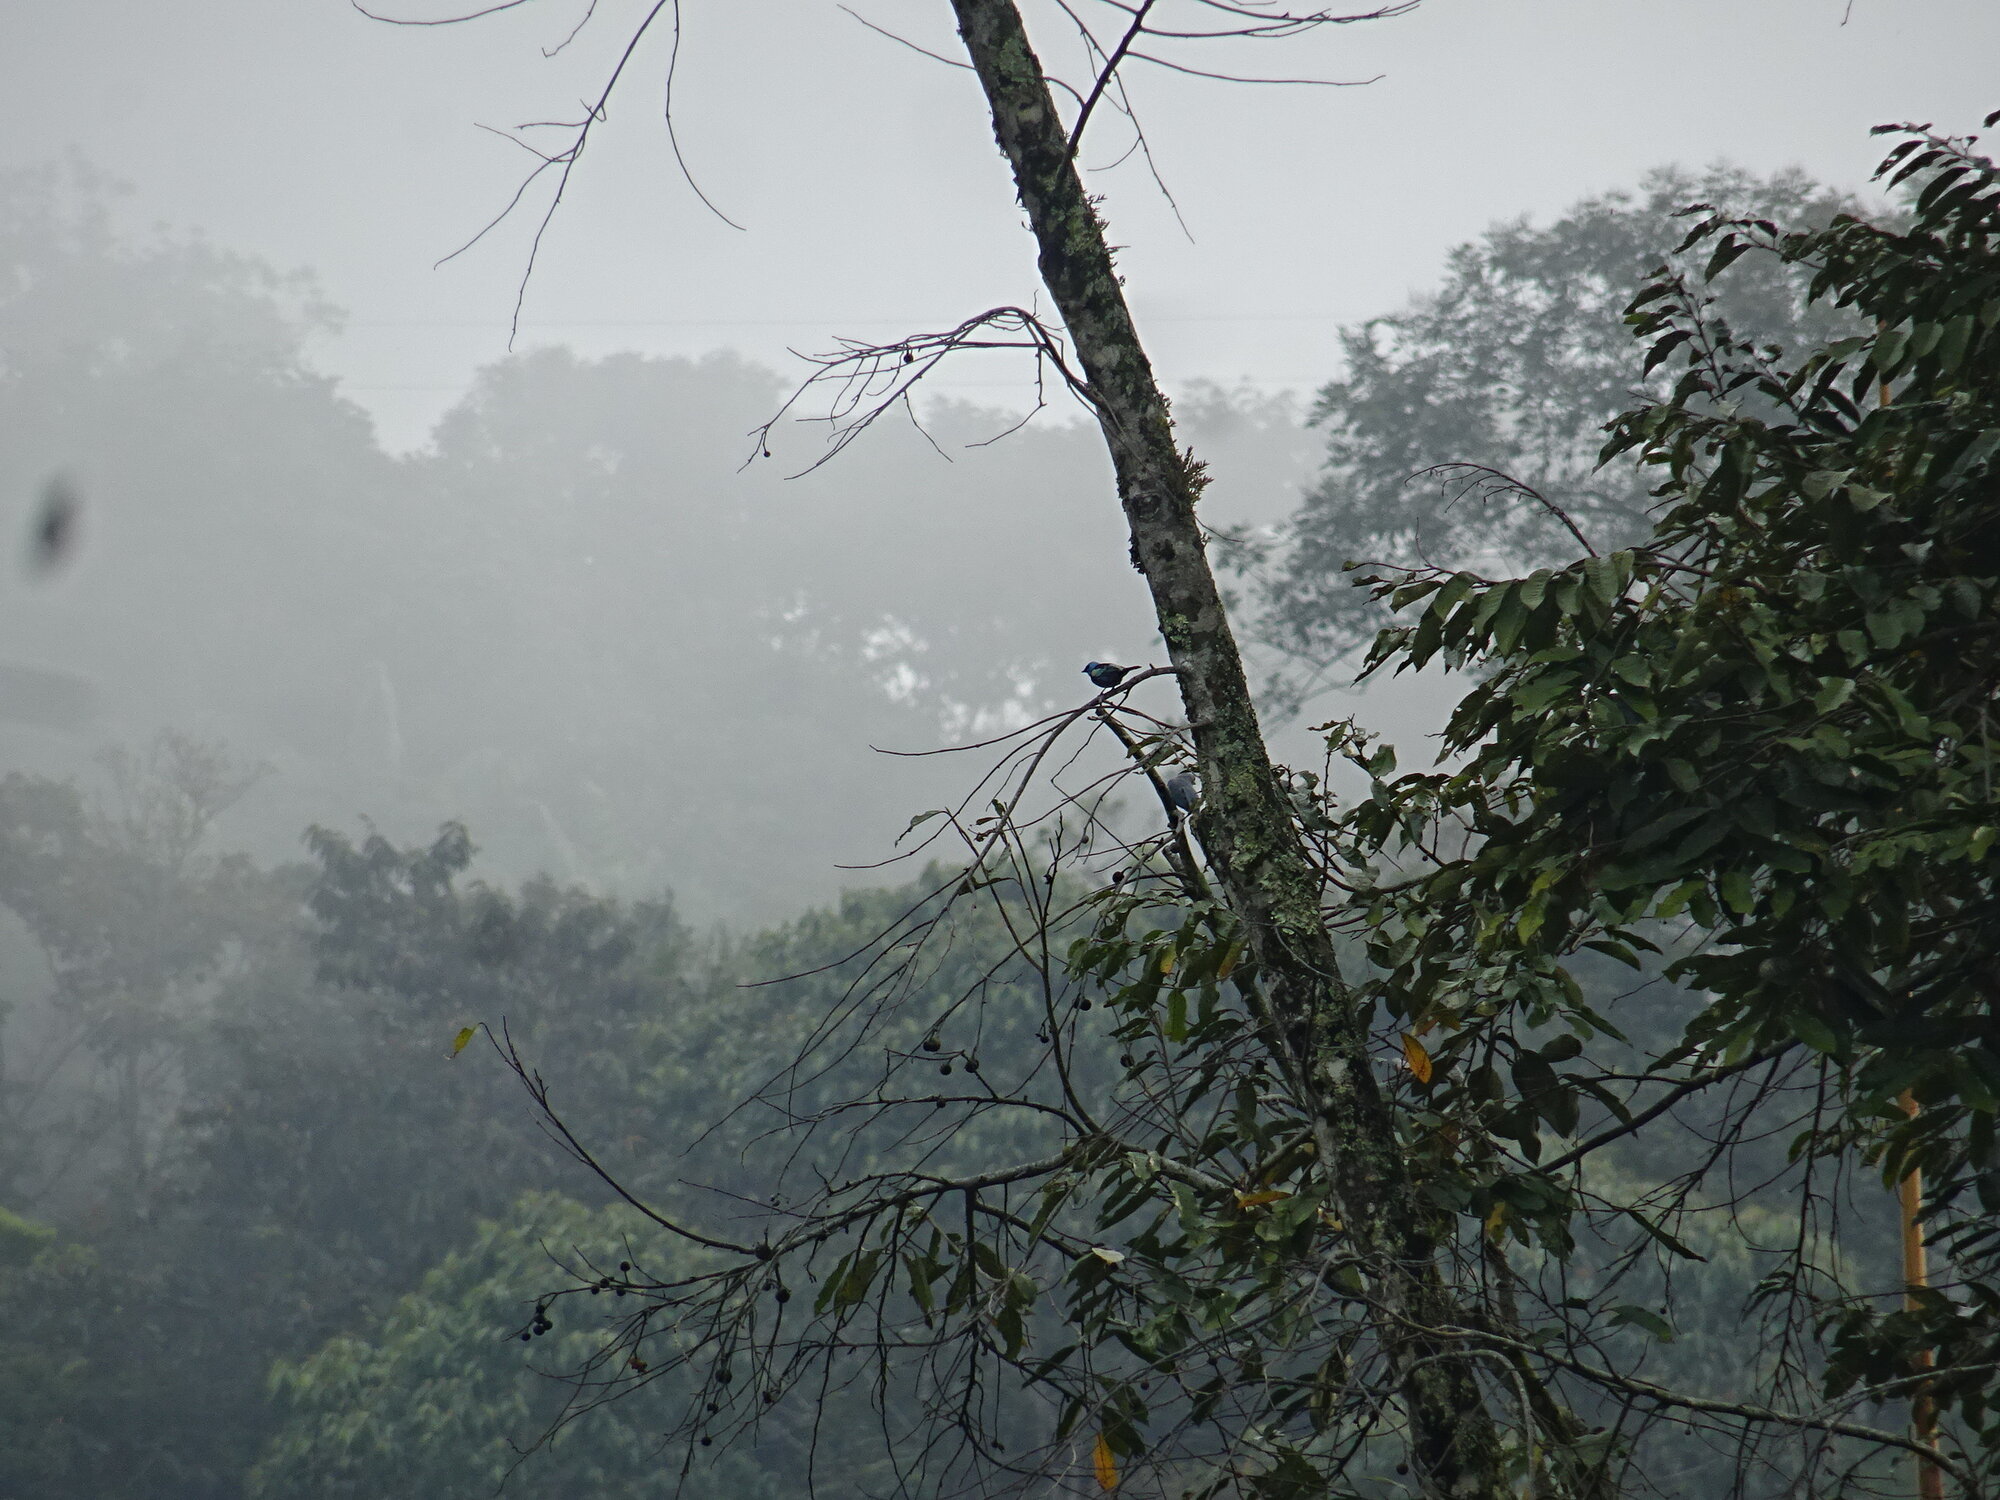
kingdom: Animalia
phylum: Chordata
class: Aves
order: Passeriformes
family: Thraupidae
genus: Stilpnia
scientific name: Stilpnia cyanicollis
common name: Blue-necked tanager
